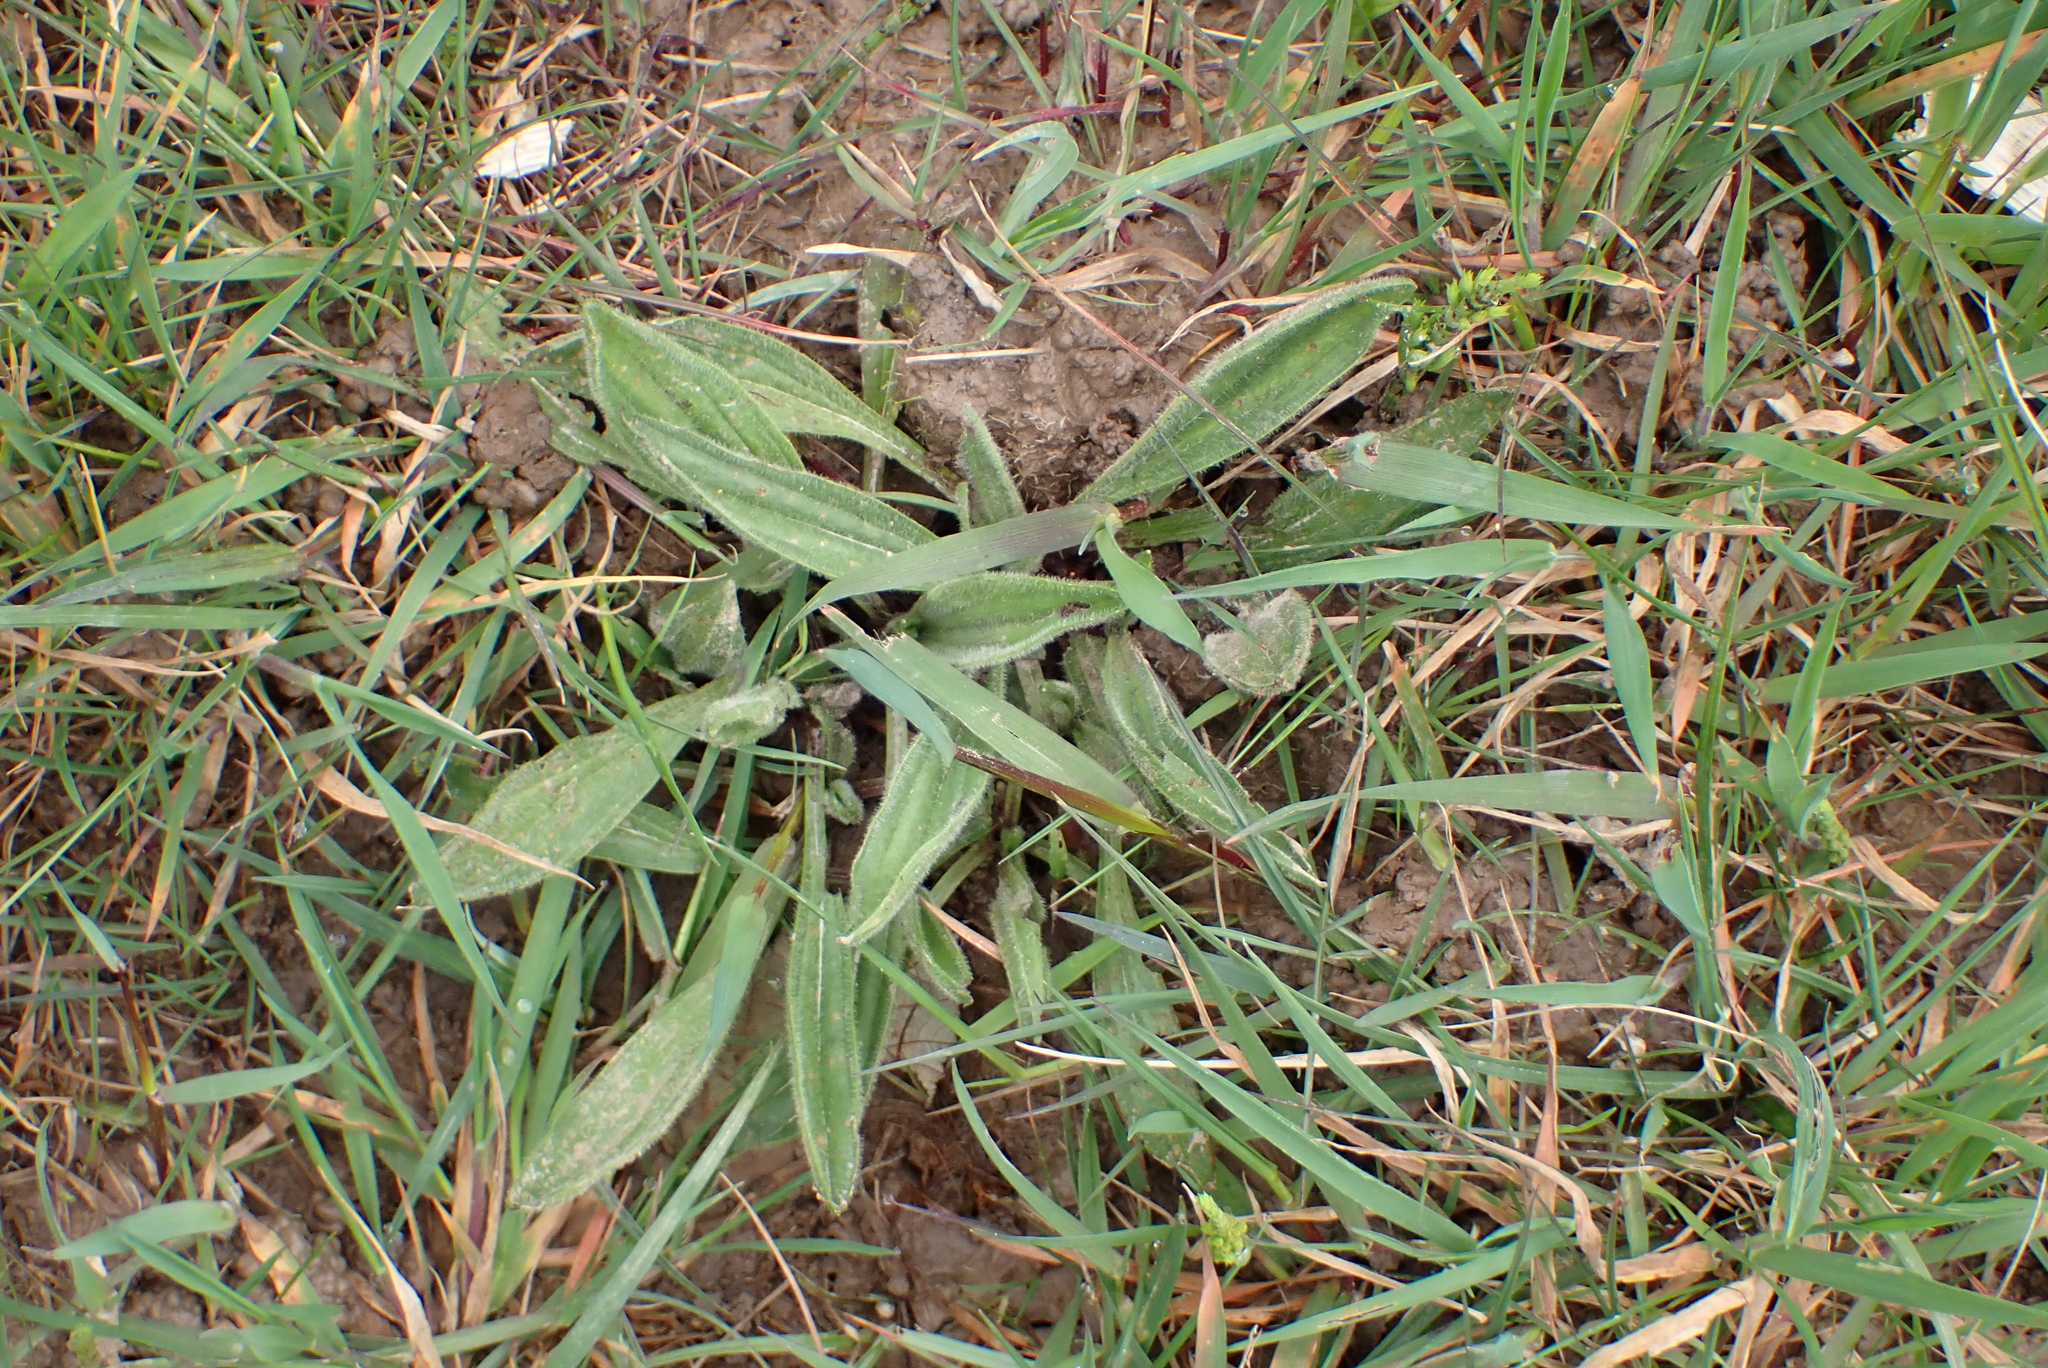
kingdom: Plantae
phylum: Tracheophyta
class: Magnoliopsida
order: Lamiales
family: Plantaginaceae
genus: Plantago
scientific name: Plantago lanceolata
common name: Ribwort plantain
